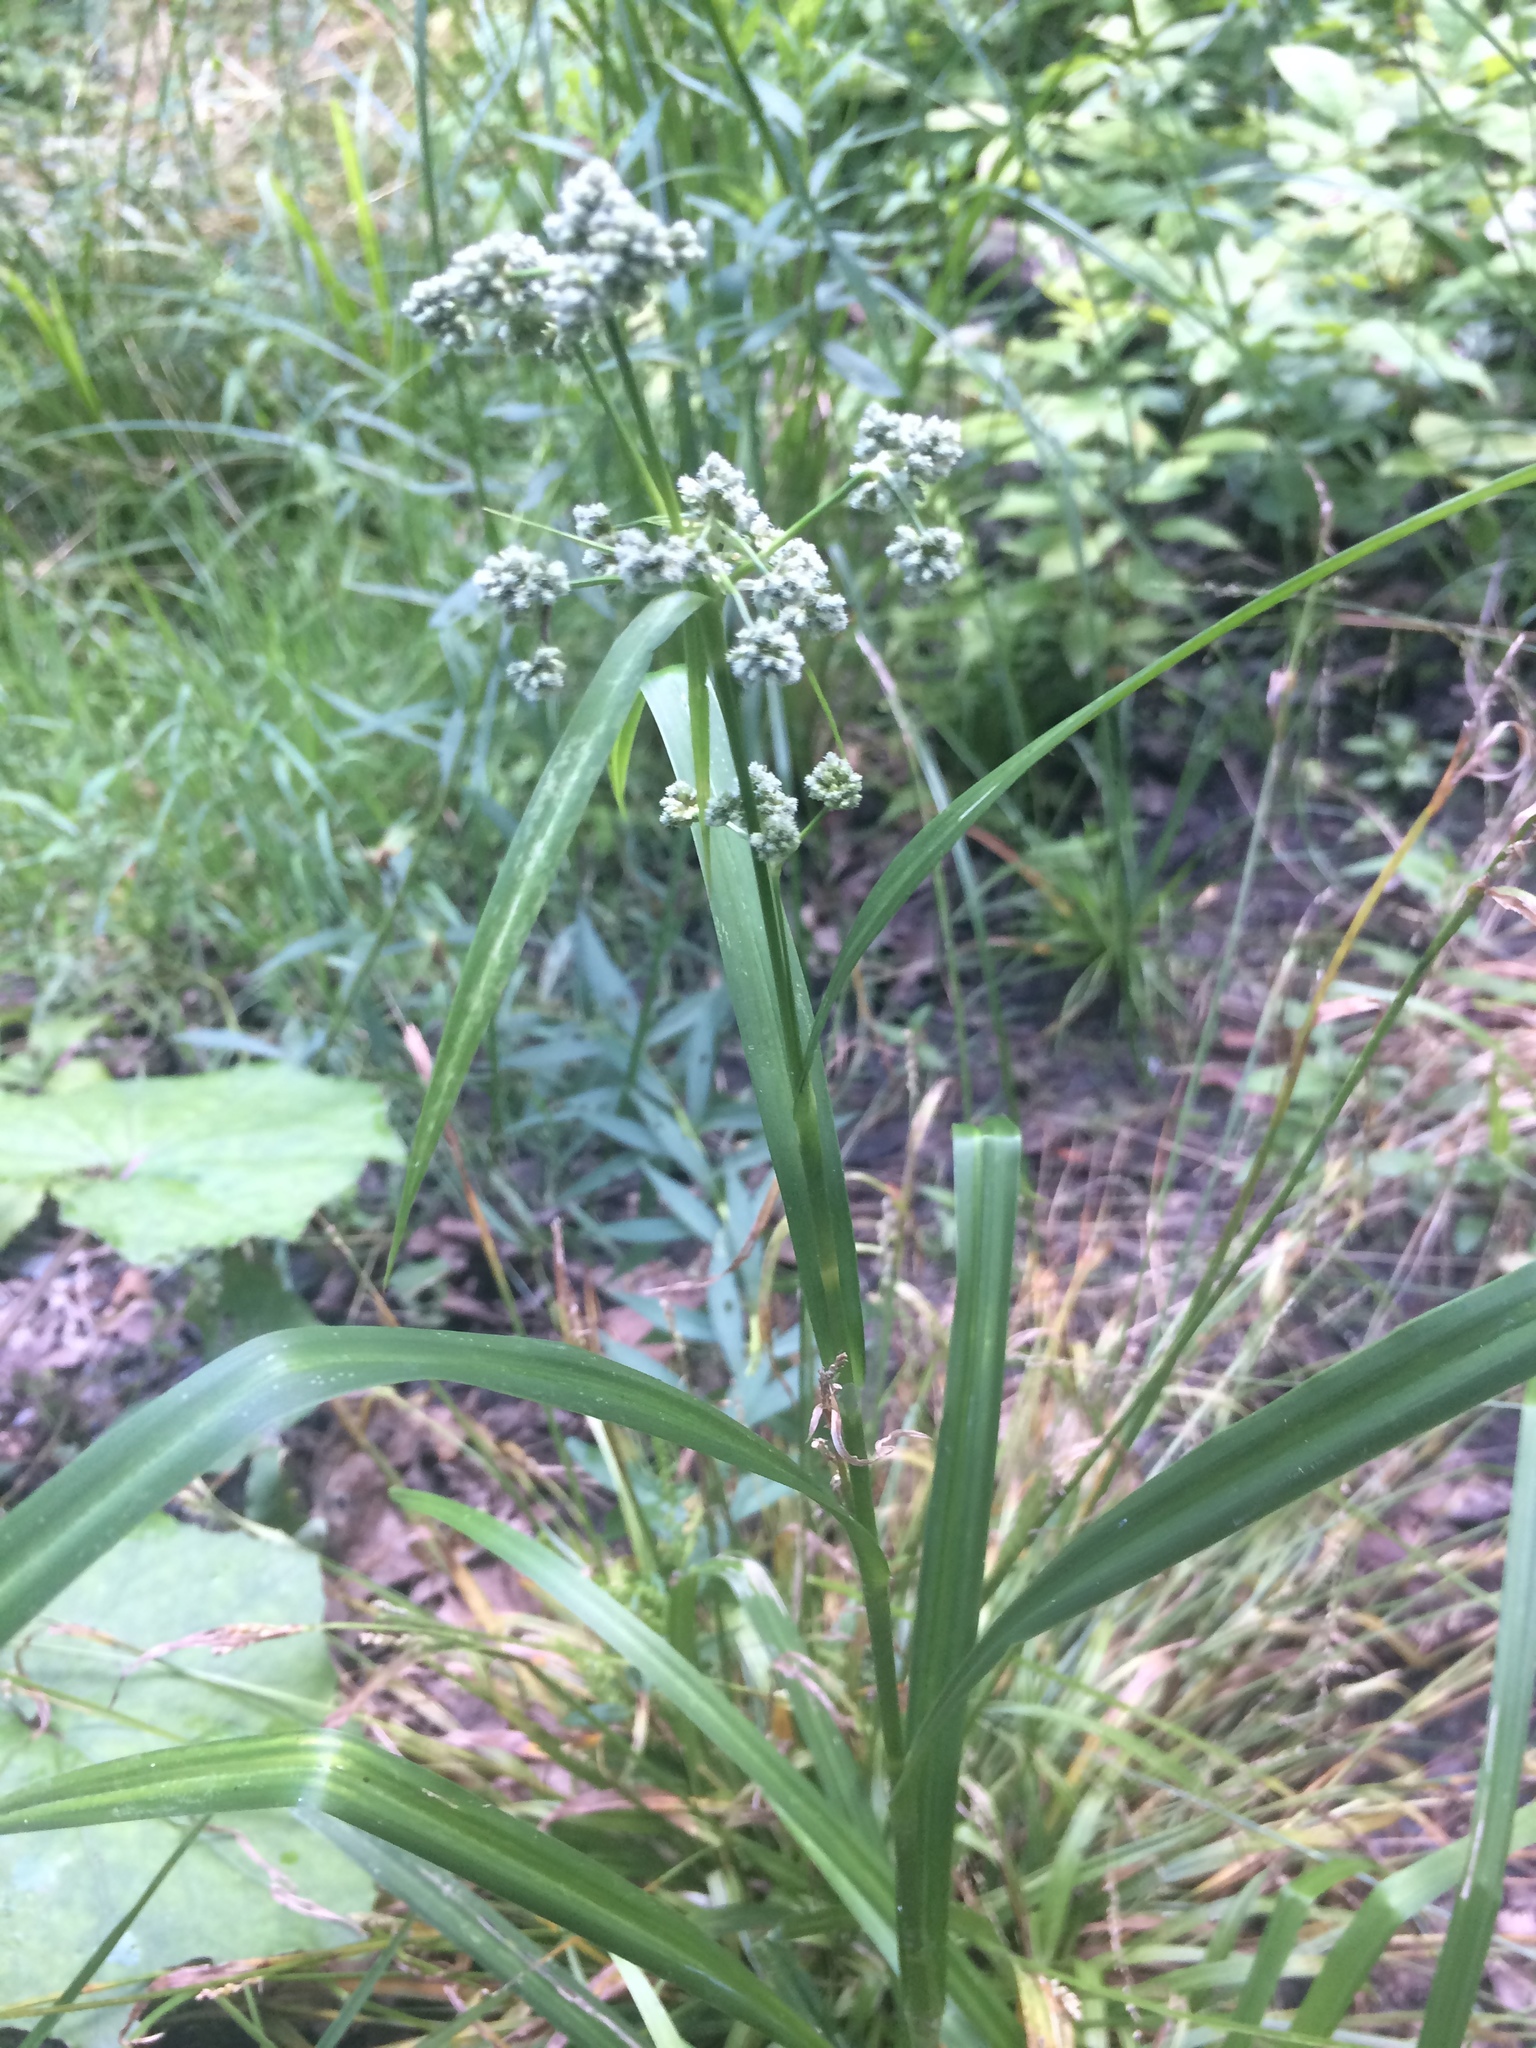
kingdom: Plantae
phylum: Tracheophyta
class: Liliopsida
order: Poales
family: Cyperaceae
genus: Scirpus
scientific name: Scirpus atrovirens
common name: Black bulrush
